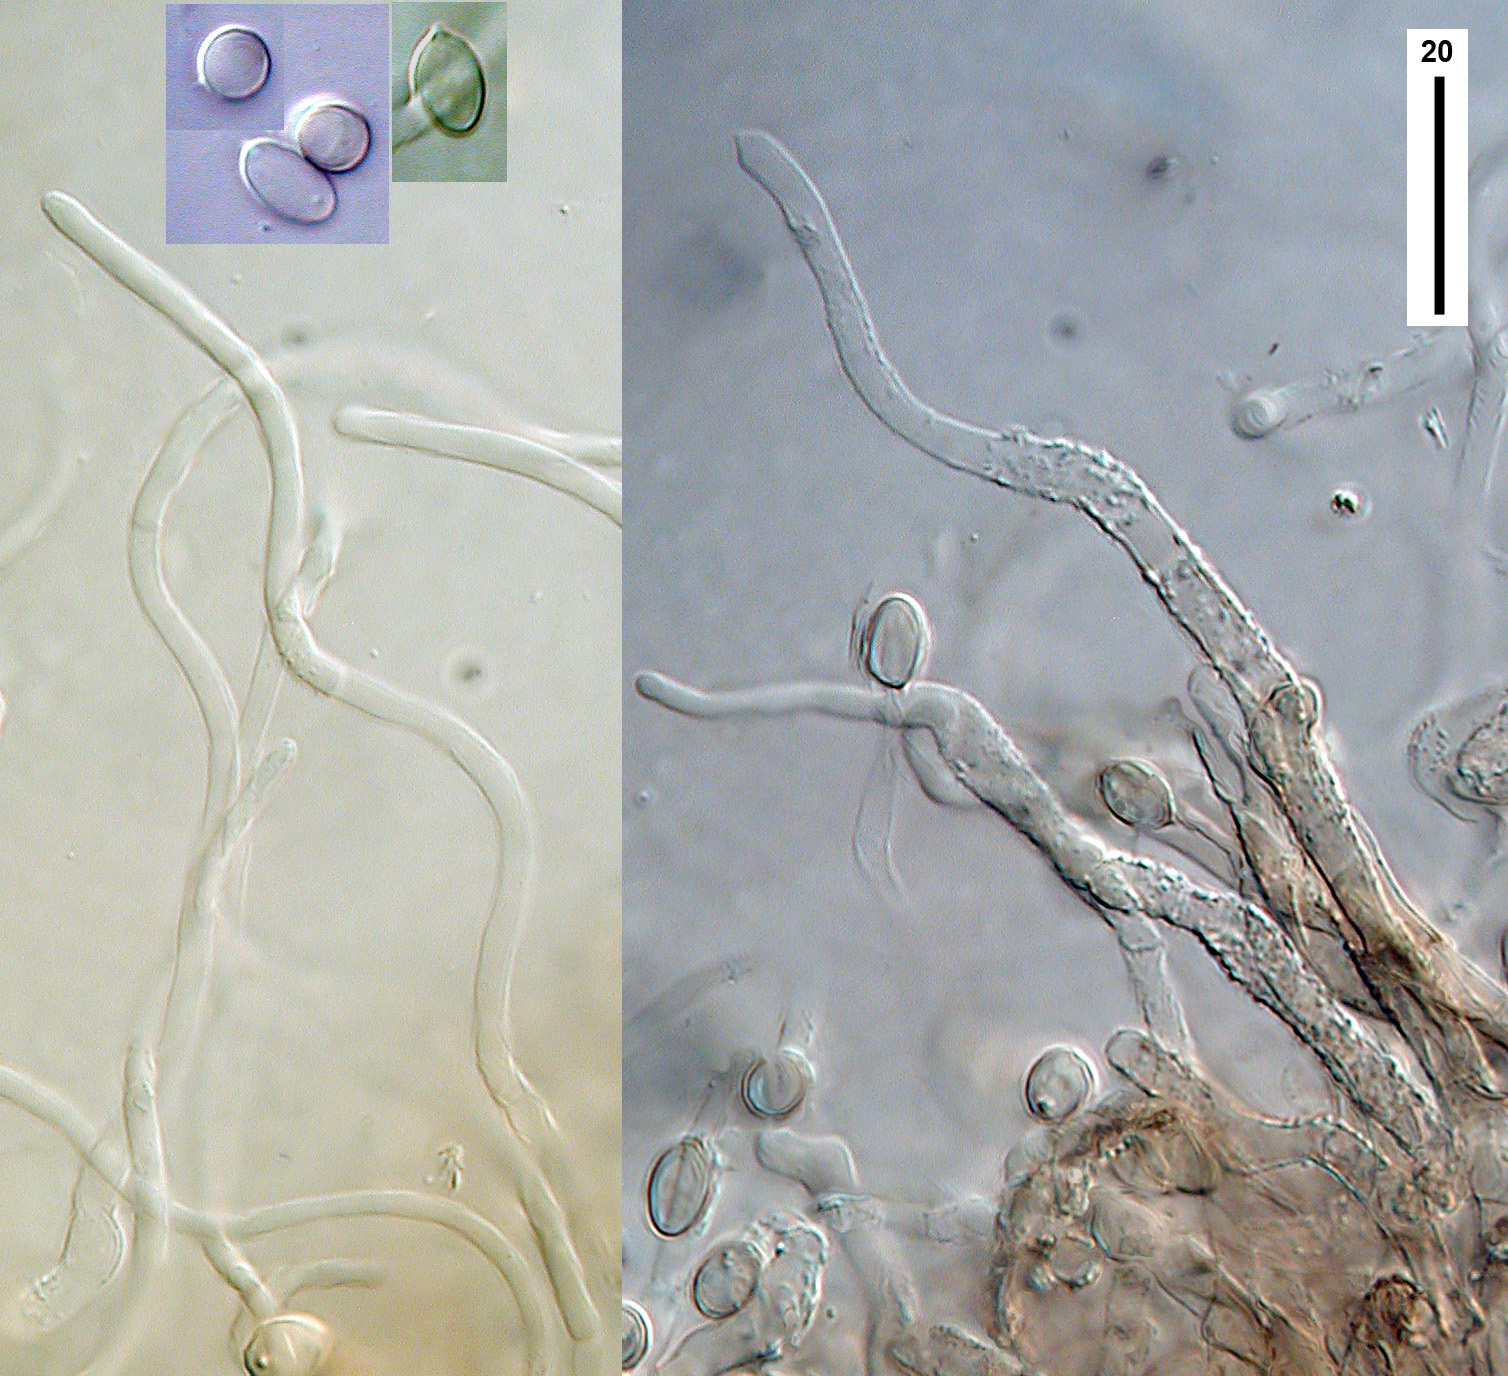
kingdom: Fungi
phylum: Basidiomycota
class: Agaricomycetes
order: Agaricales
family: Entolomataceae
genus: Clitopilus
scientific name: Clitopilus argentinus
